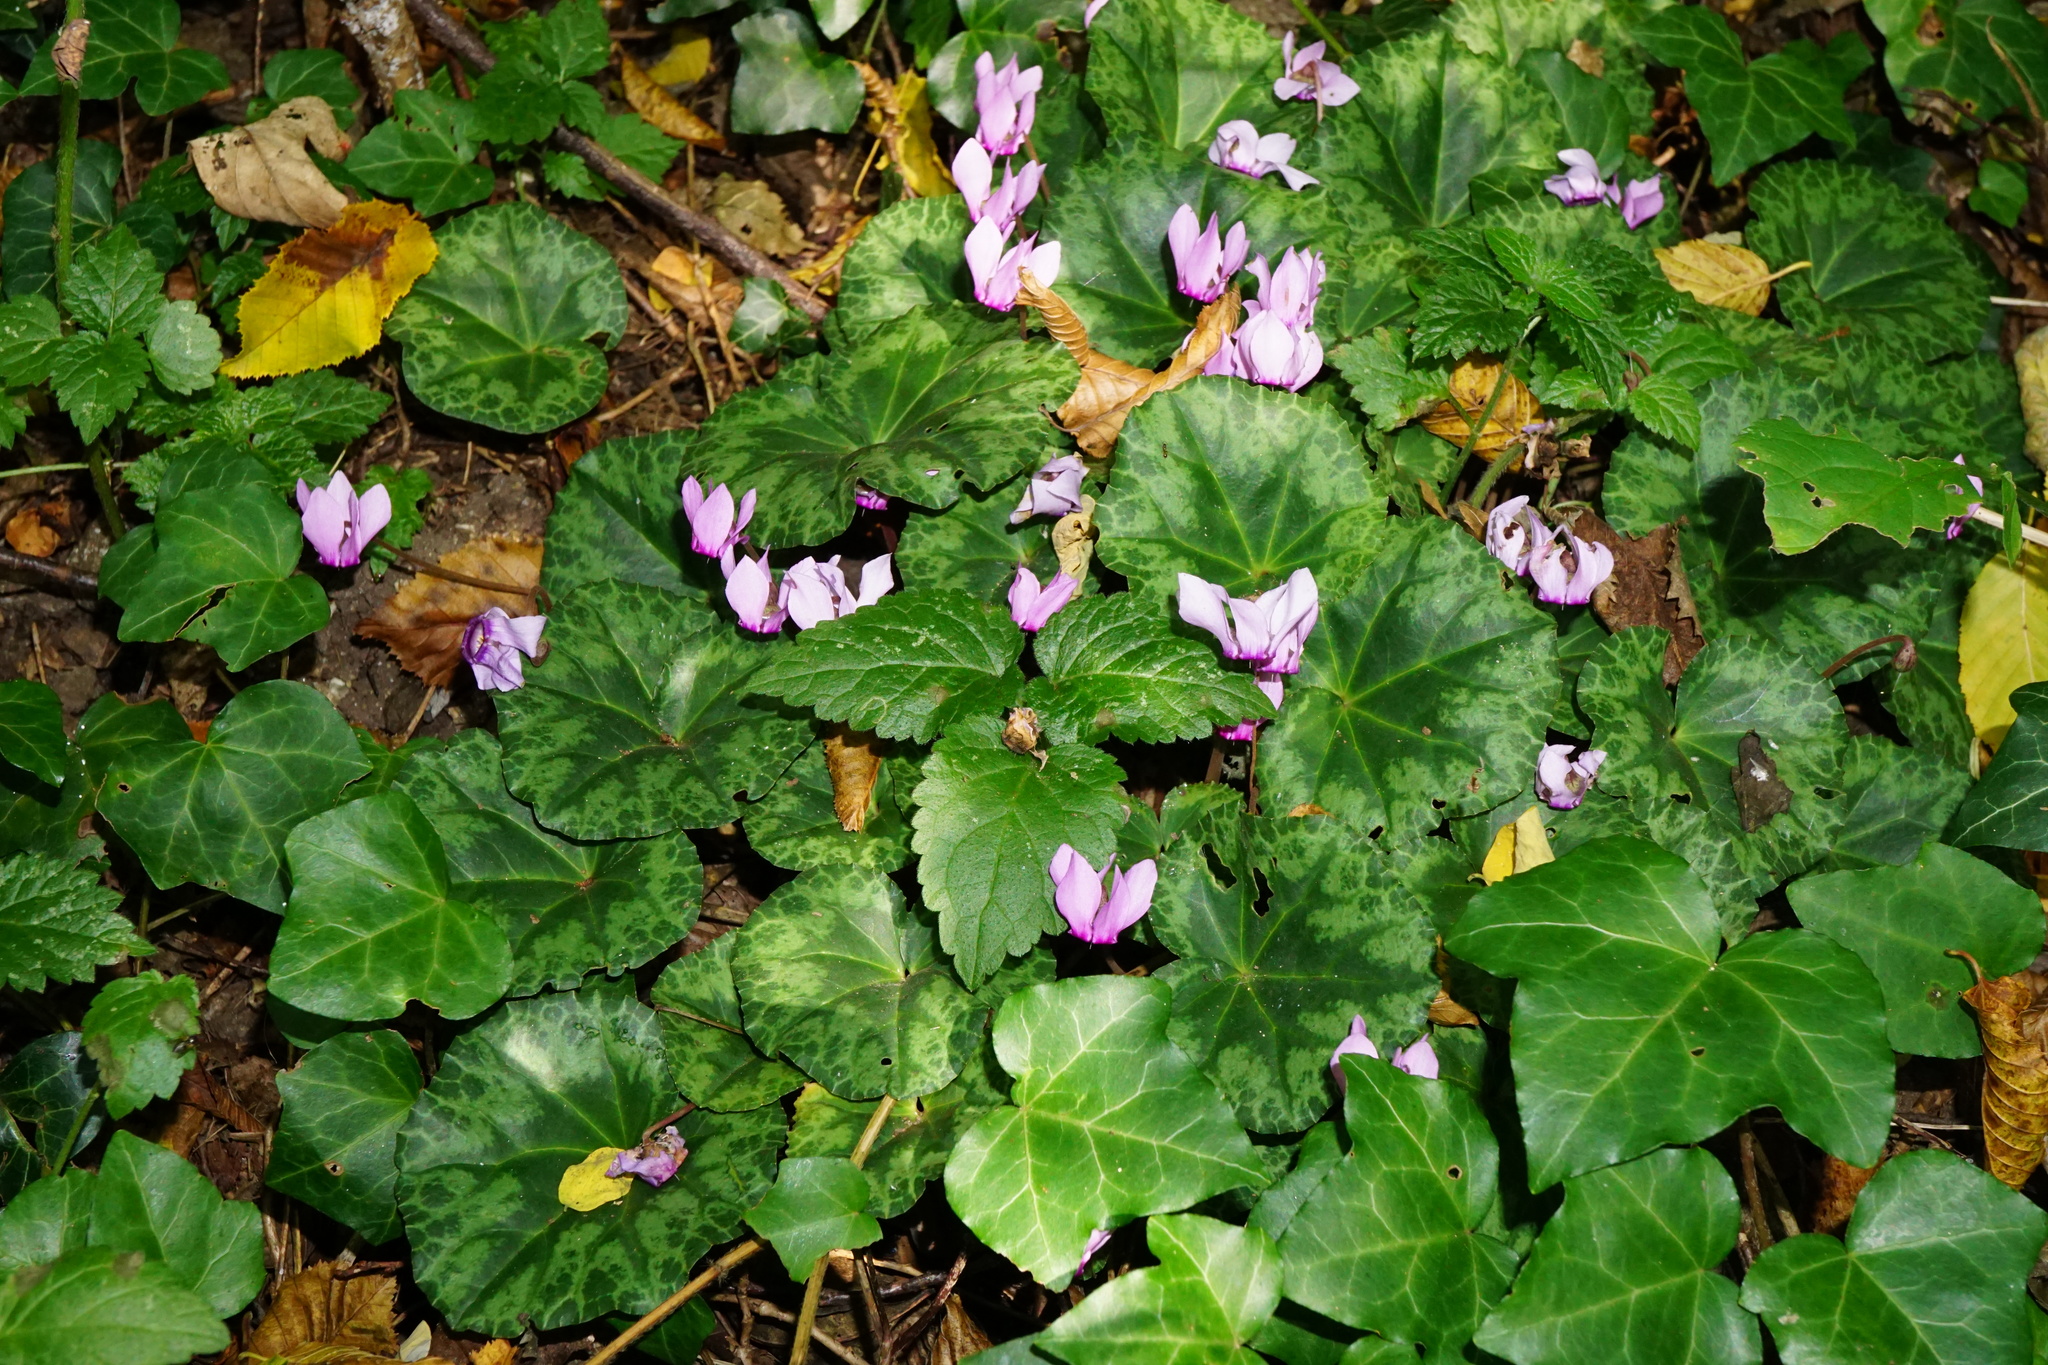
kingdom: Plantae
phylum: Tracheophyta
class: Magnoliopsida
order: Ericales
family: Primulaceae
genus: Cyclamen
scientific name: Cyclamen purpurascens
